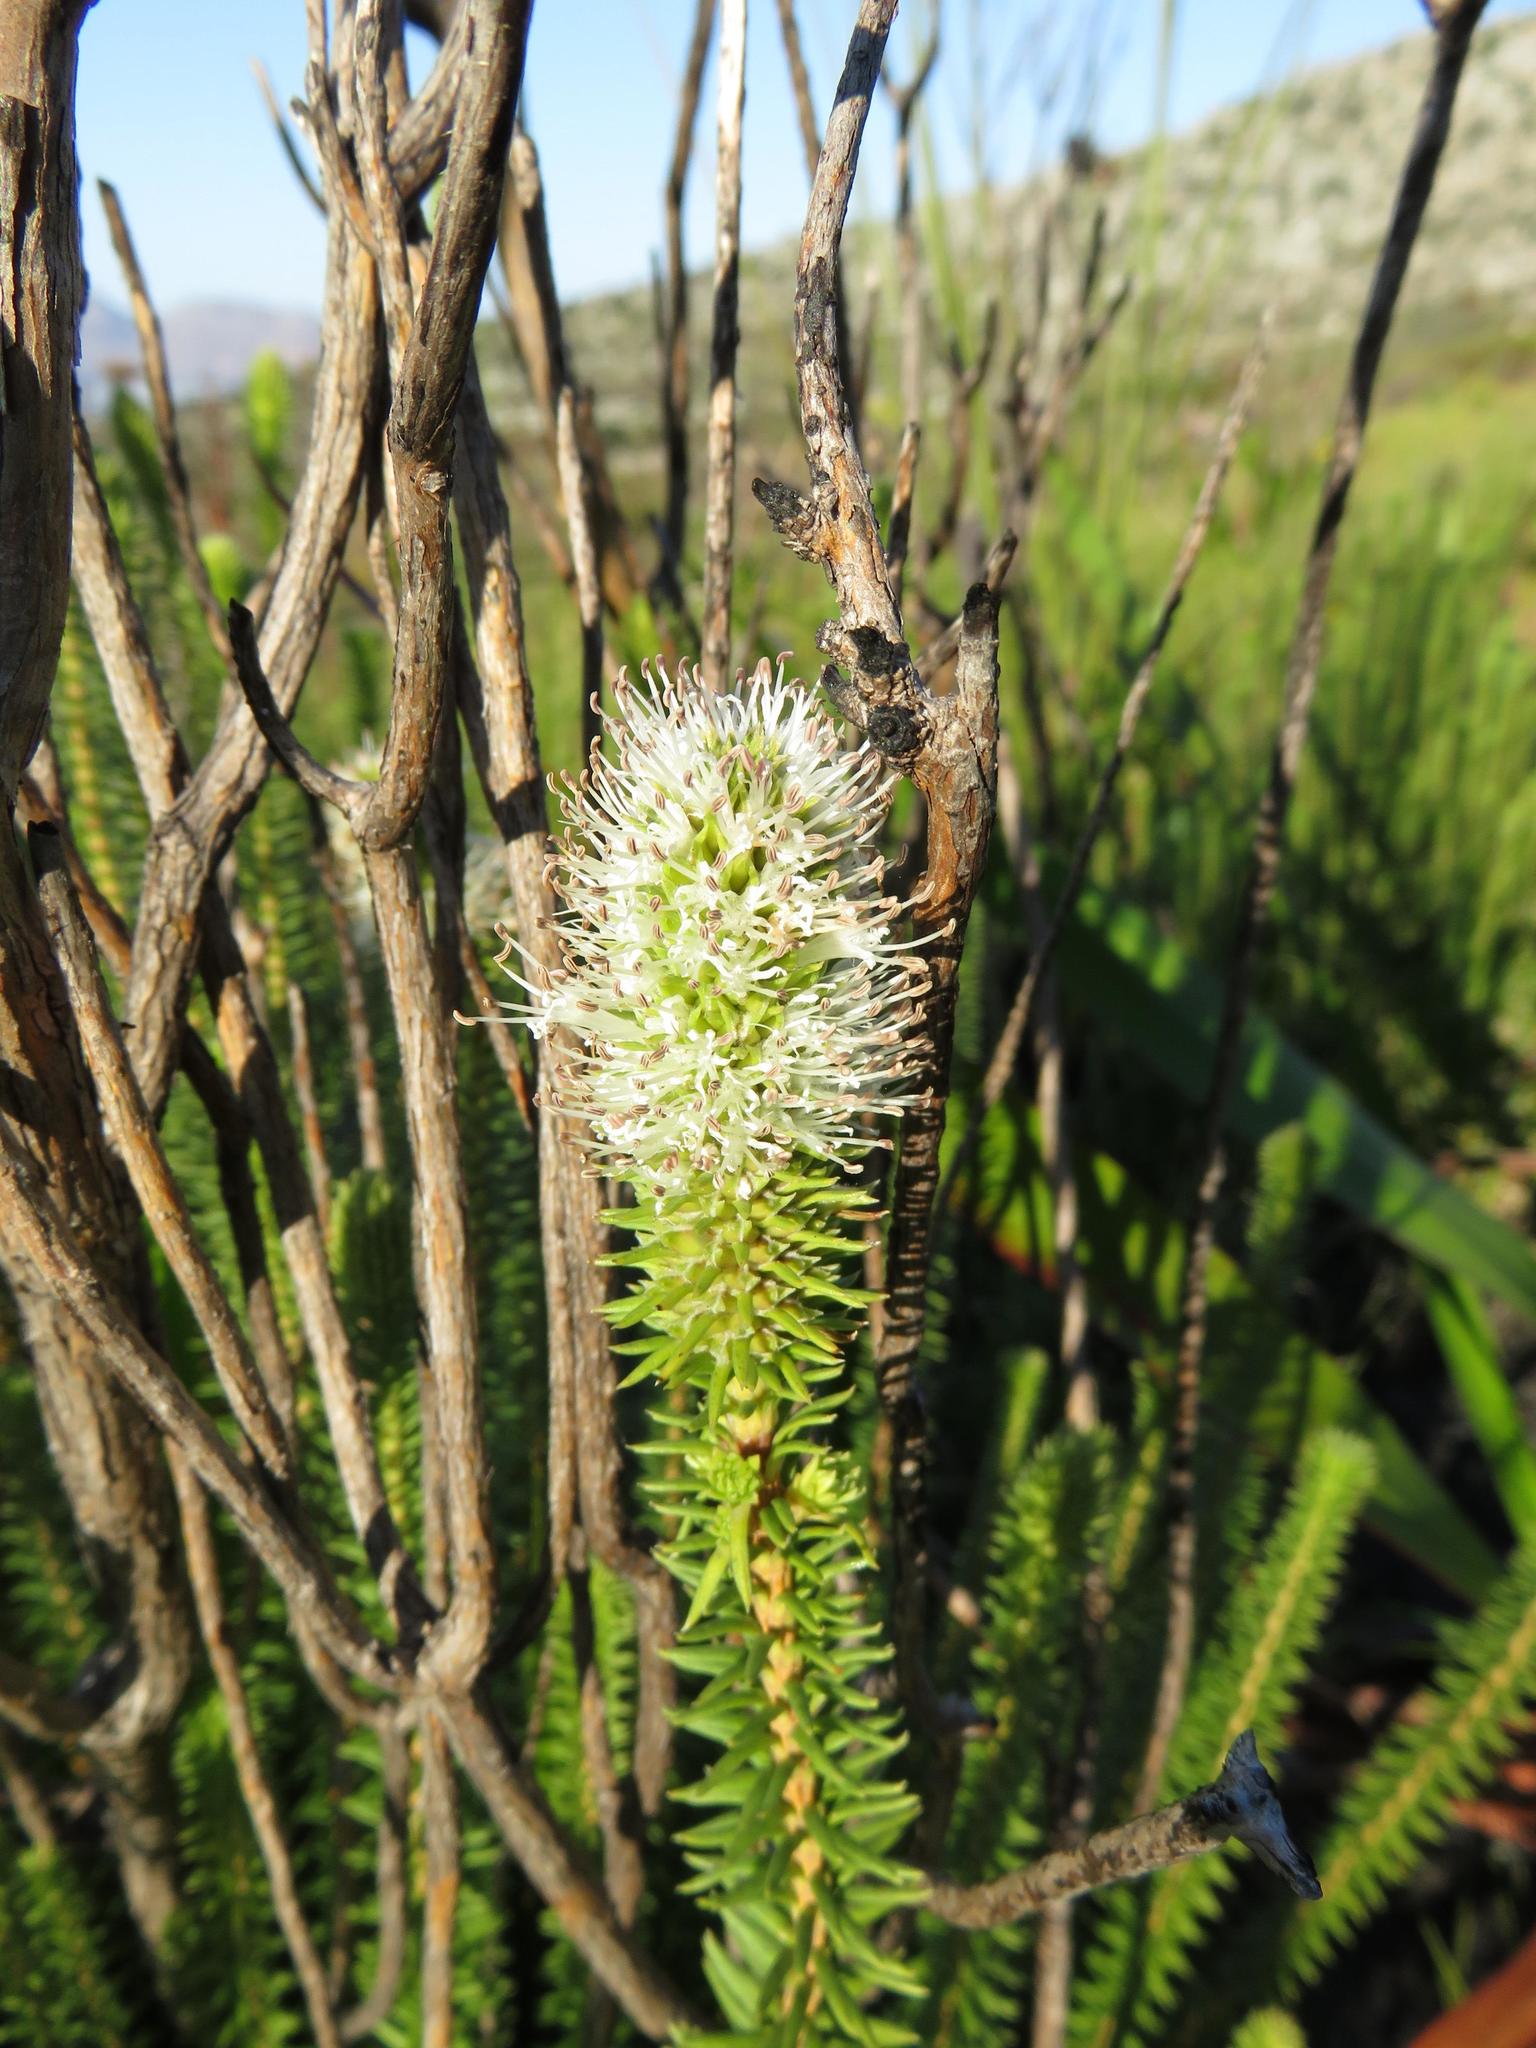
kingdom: Plantae
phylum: Tracheophyta
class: Magnoliopsida
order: Lamiales
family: Stilbaceae
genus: Stilbe
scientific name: Stilbe vestita
